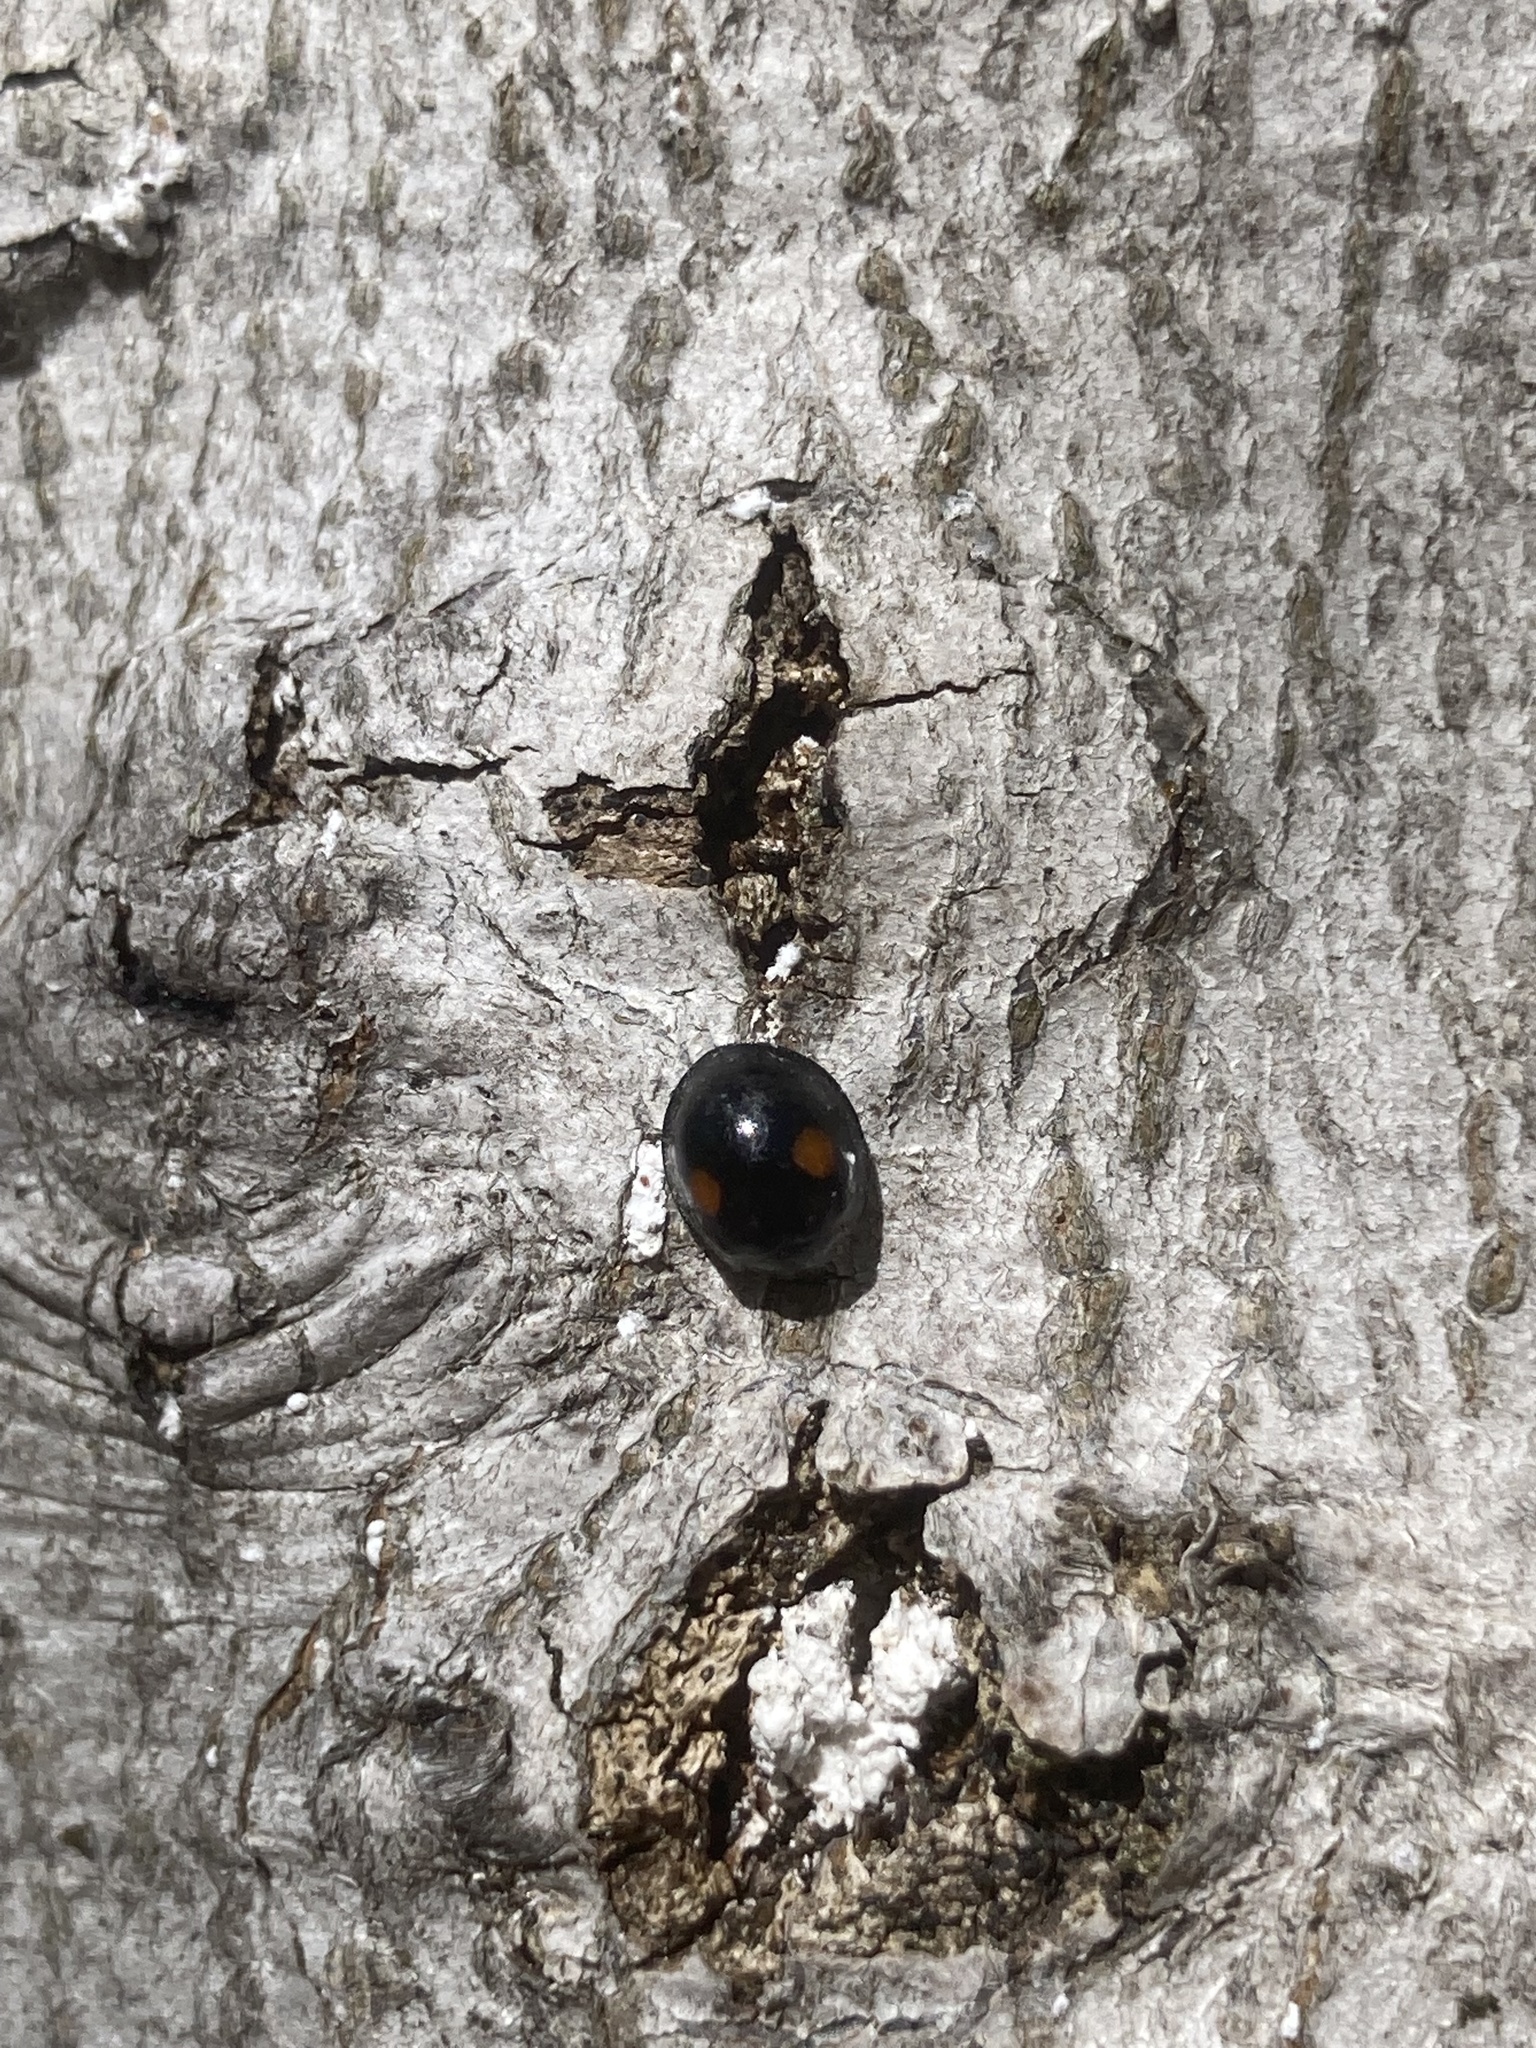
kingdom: Animalia
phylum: Arthropoda
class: Insecta
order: Coleoptera
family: Coccinellidae
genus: Chilocorus
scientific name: Chilocorus stigma
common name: Twicestabbed lady beetle
